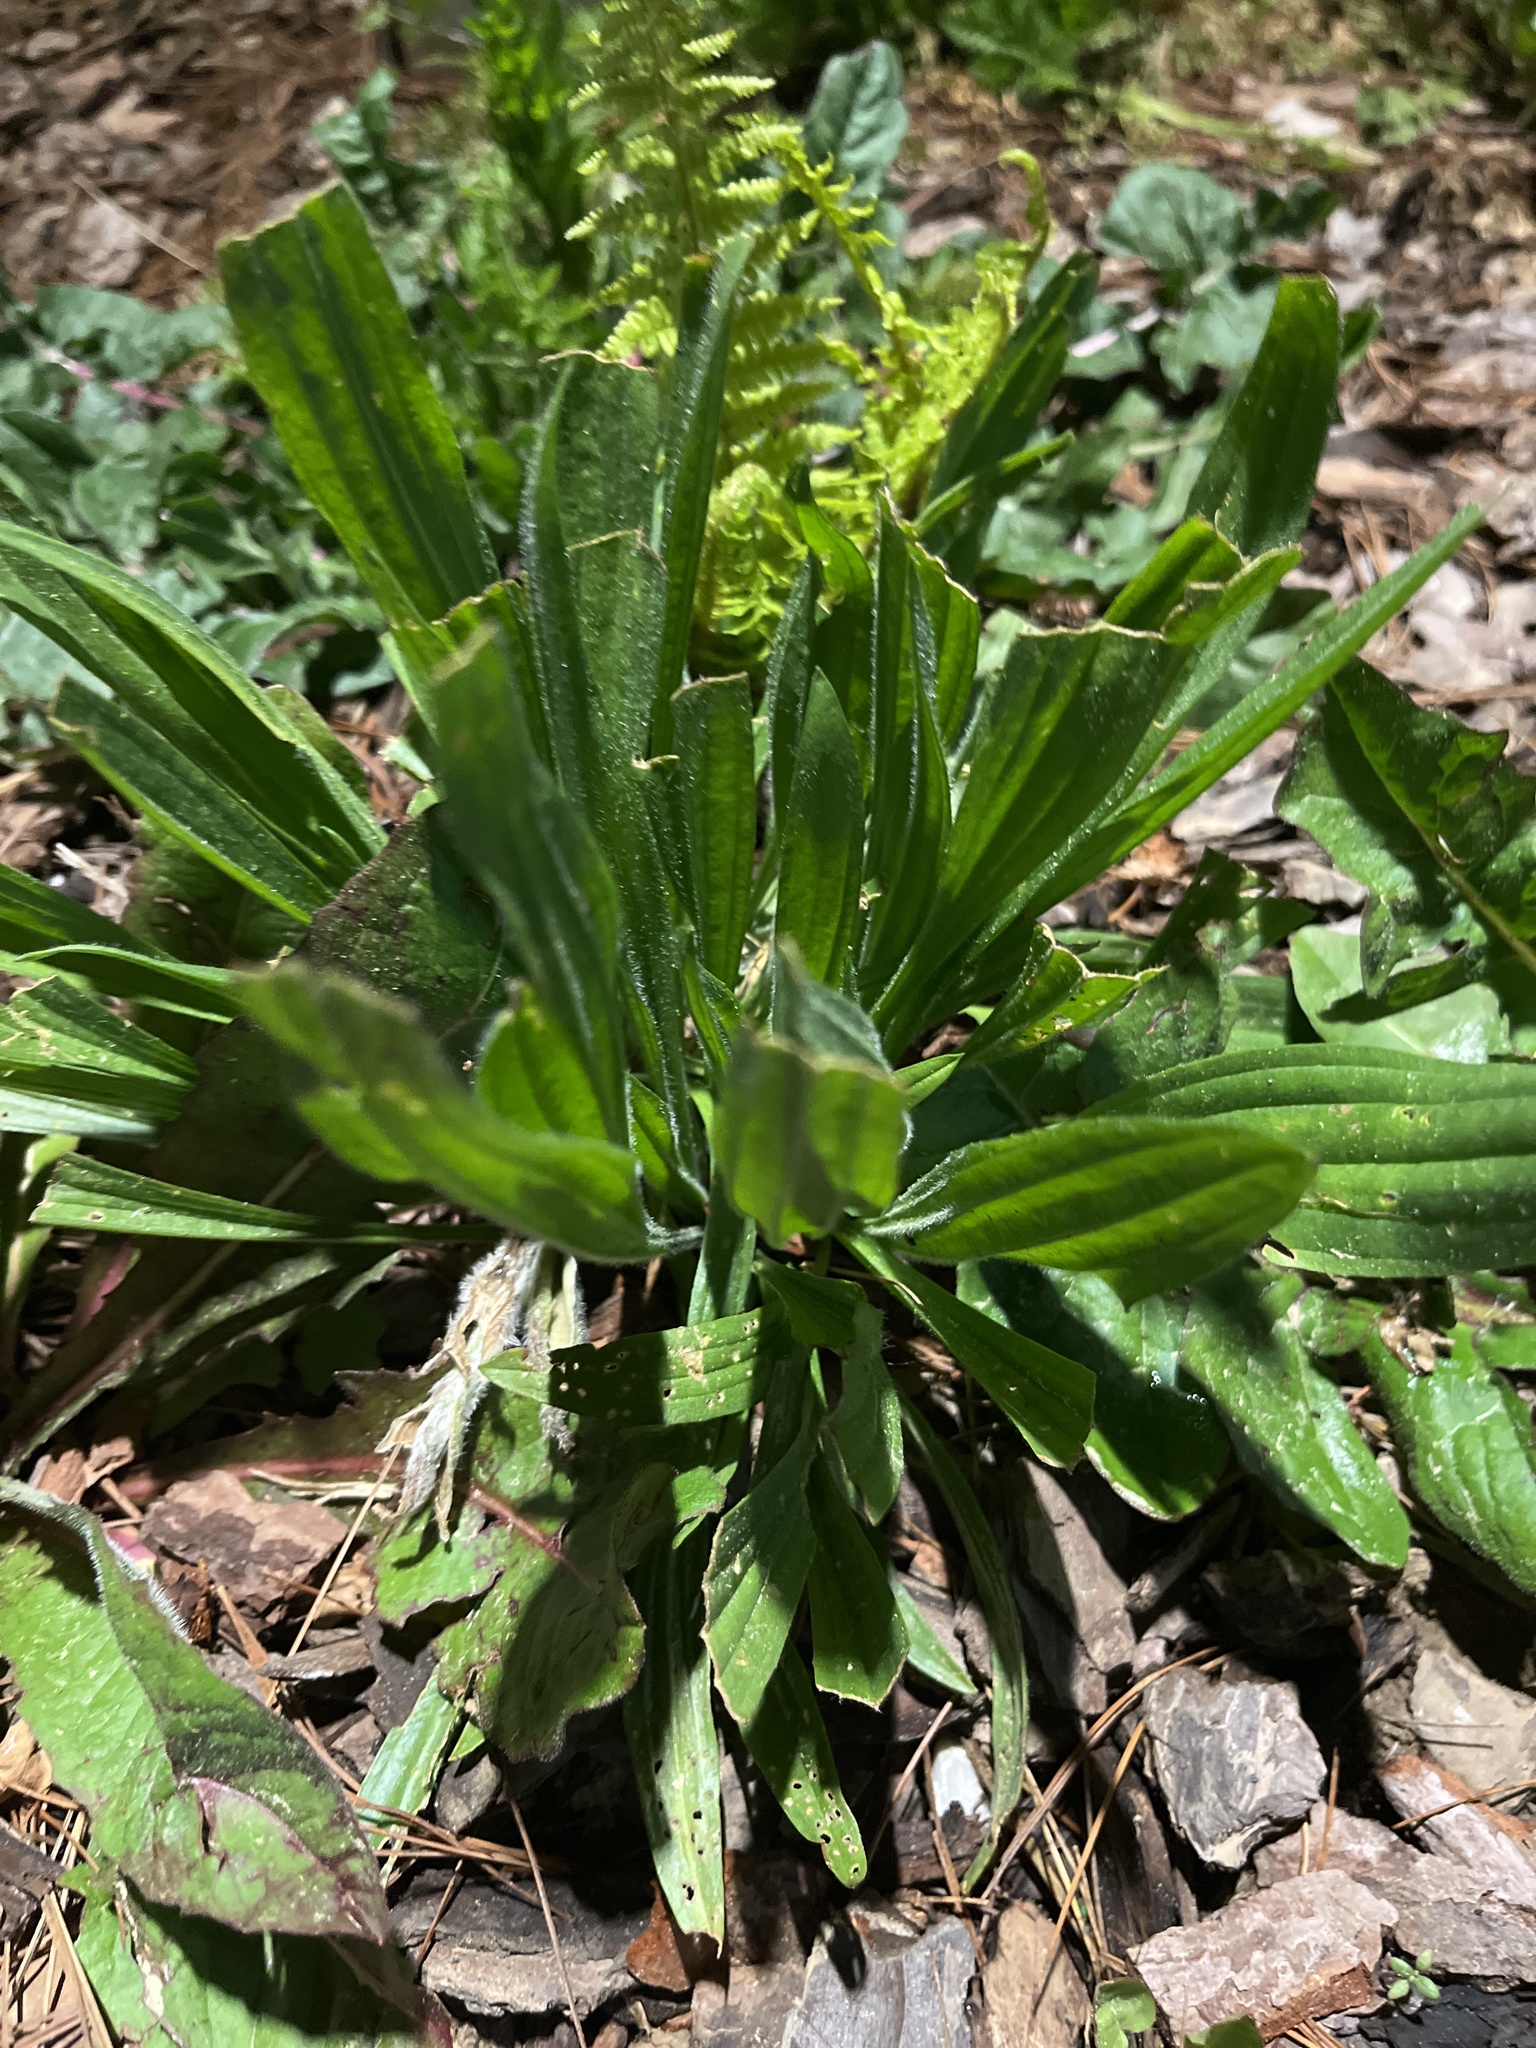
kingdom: Plantae
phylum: Tracheophyta
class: Magnoliopsida
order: Lamiales
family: Plantaginaceae
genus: Plantago
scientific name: Plantago lanceolata
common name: Ribwort plantain
